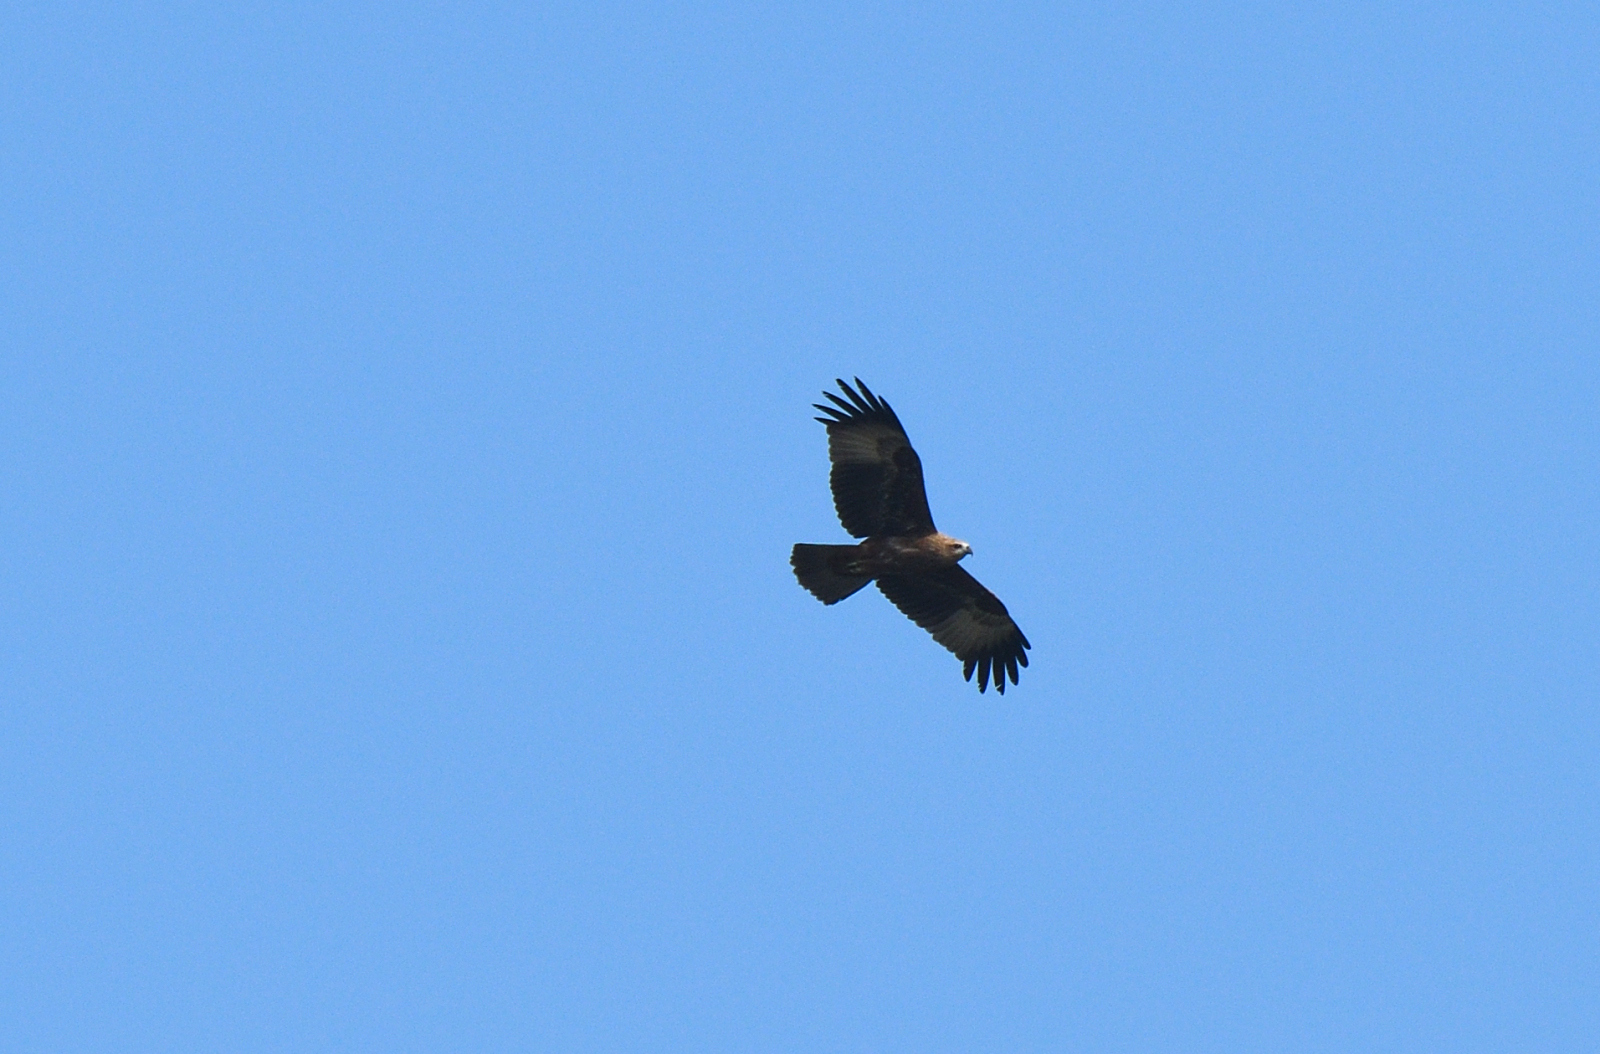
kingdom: Animalia
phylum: Chordata
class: Aves
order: Accipitriformes
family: Accipitridae
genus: Haliastur
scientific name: Haliastur indus
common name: Brahminy kite
